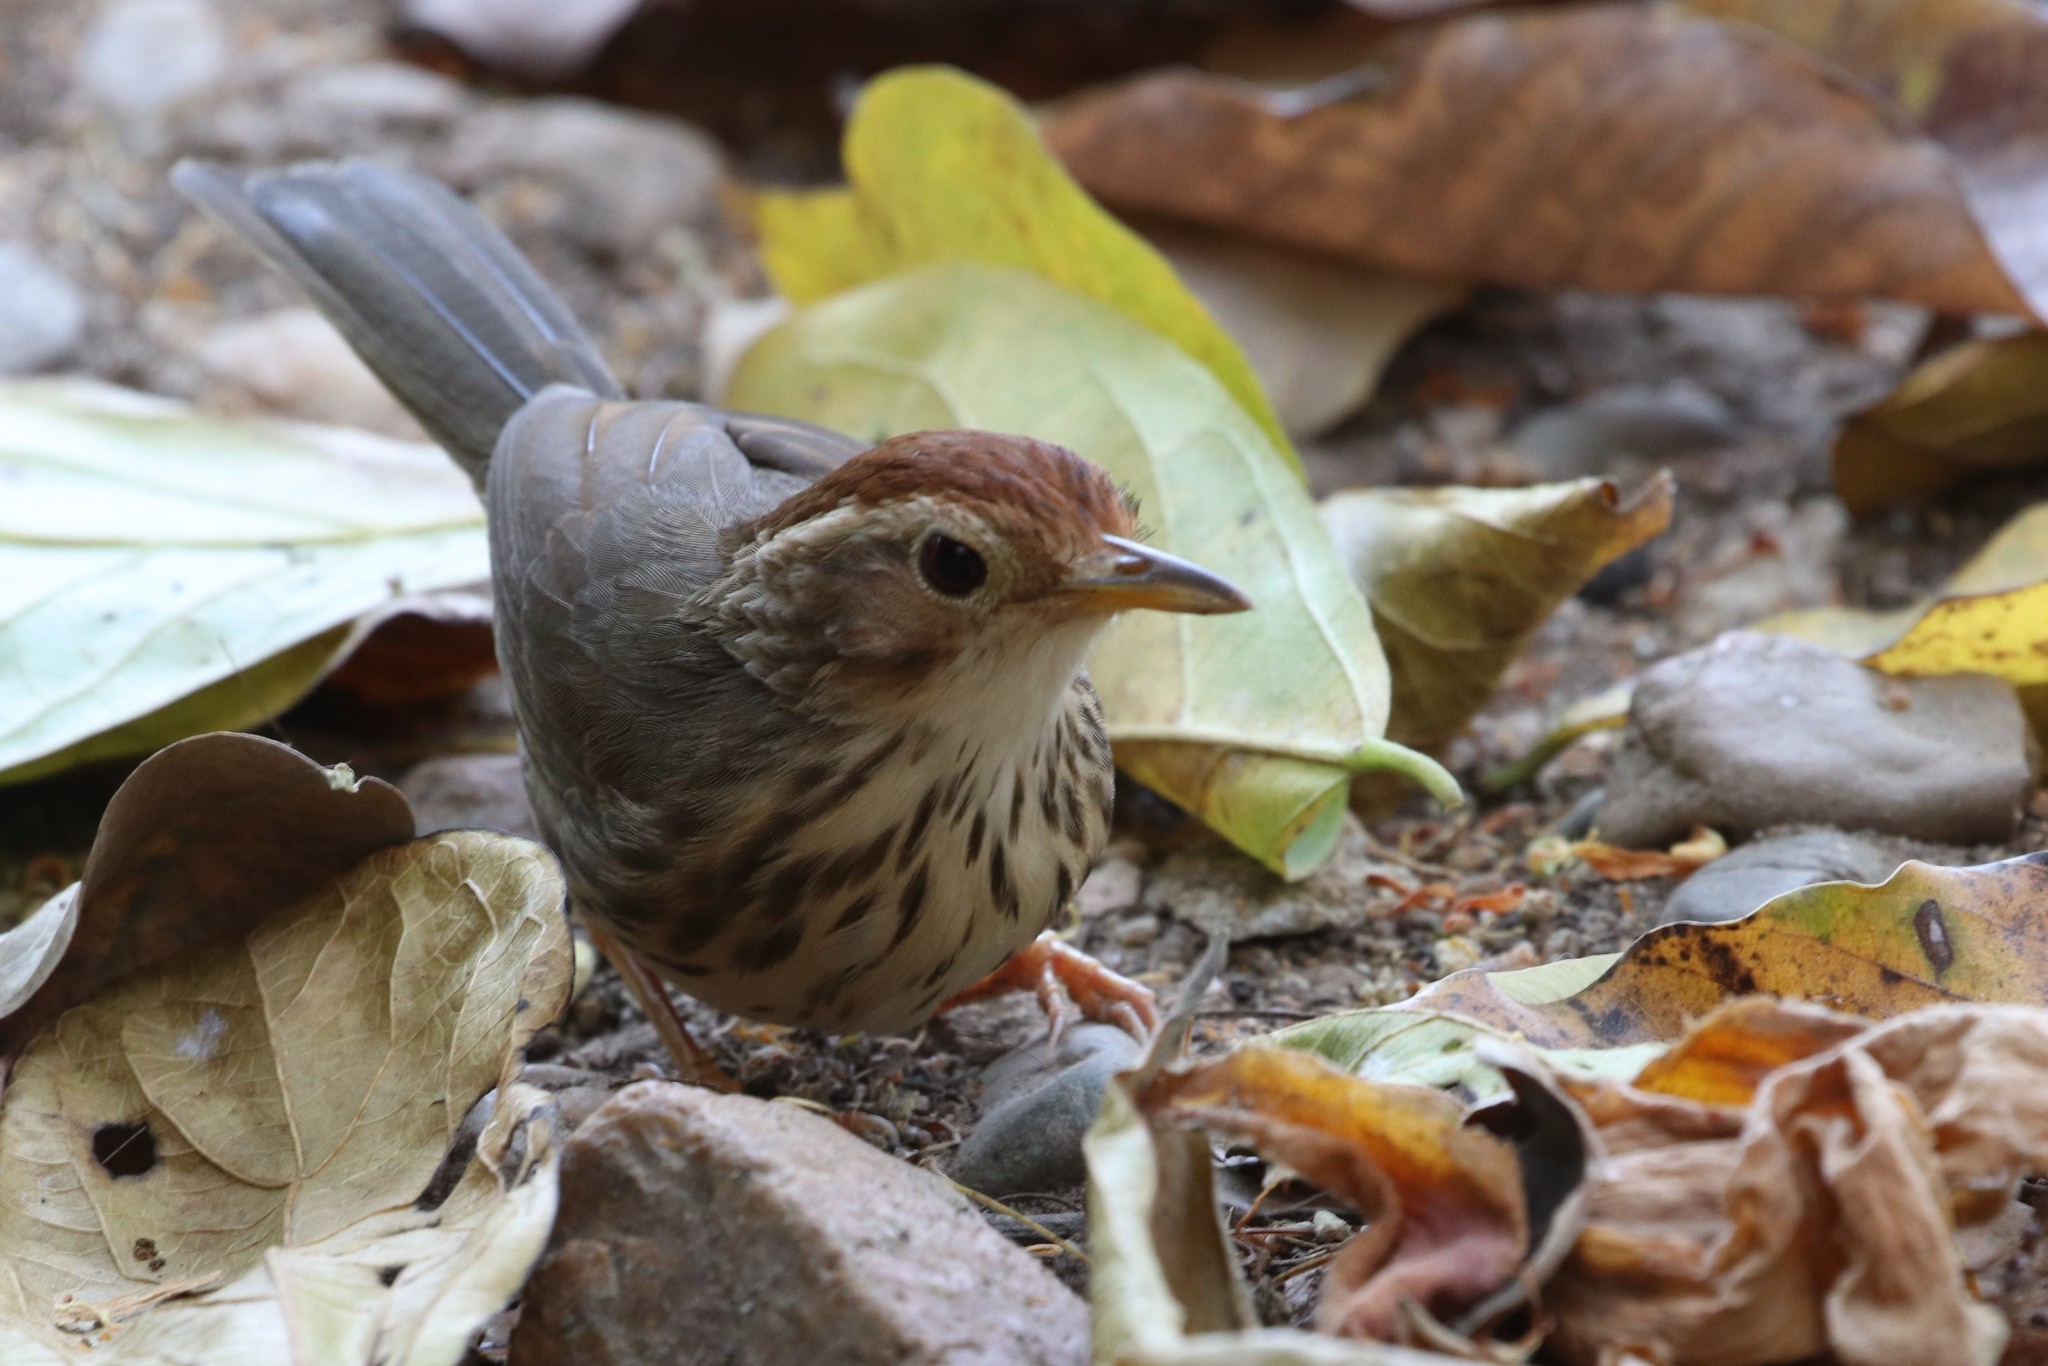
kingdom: Animalia
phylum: Chordata
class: Aves
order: Passeriformes
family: Pellorneidae
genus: Pellorneum
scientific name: Pellorneum ruficeps
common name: Puff-throated babbler
